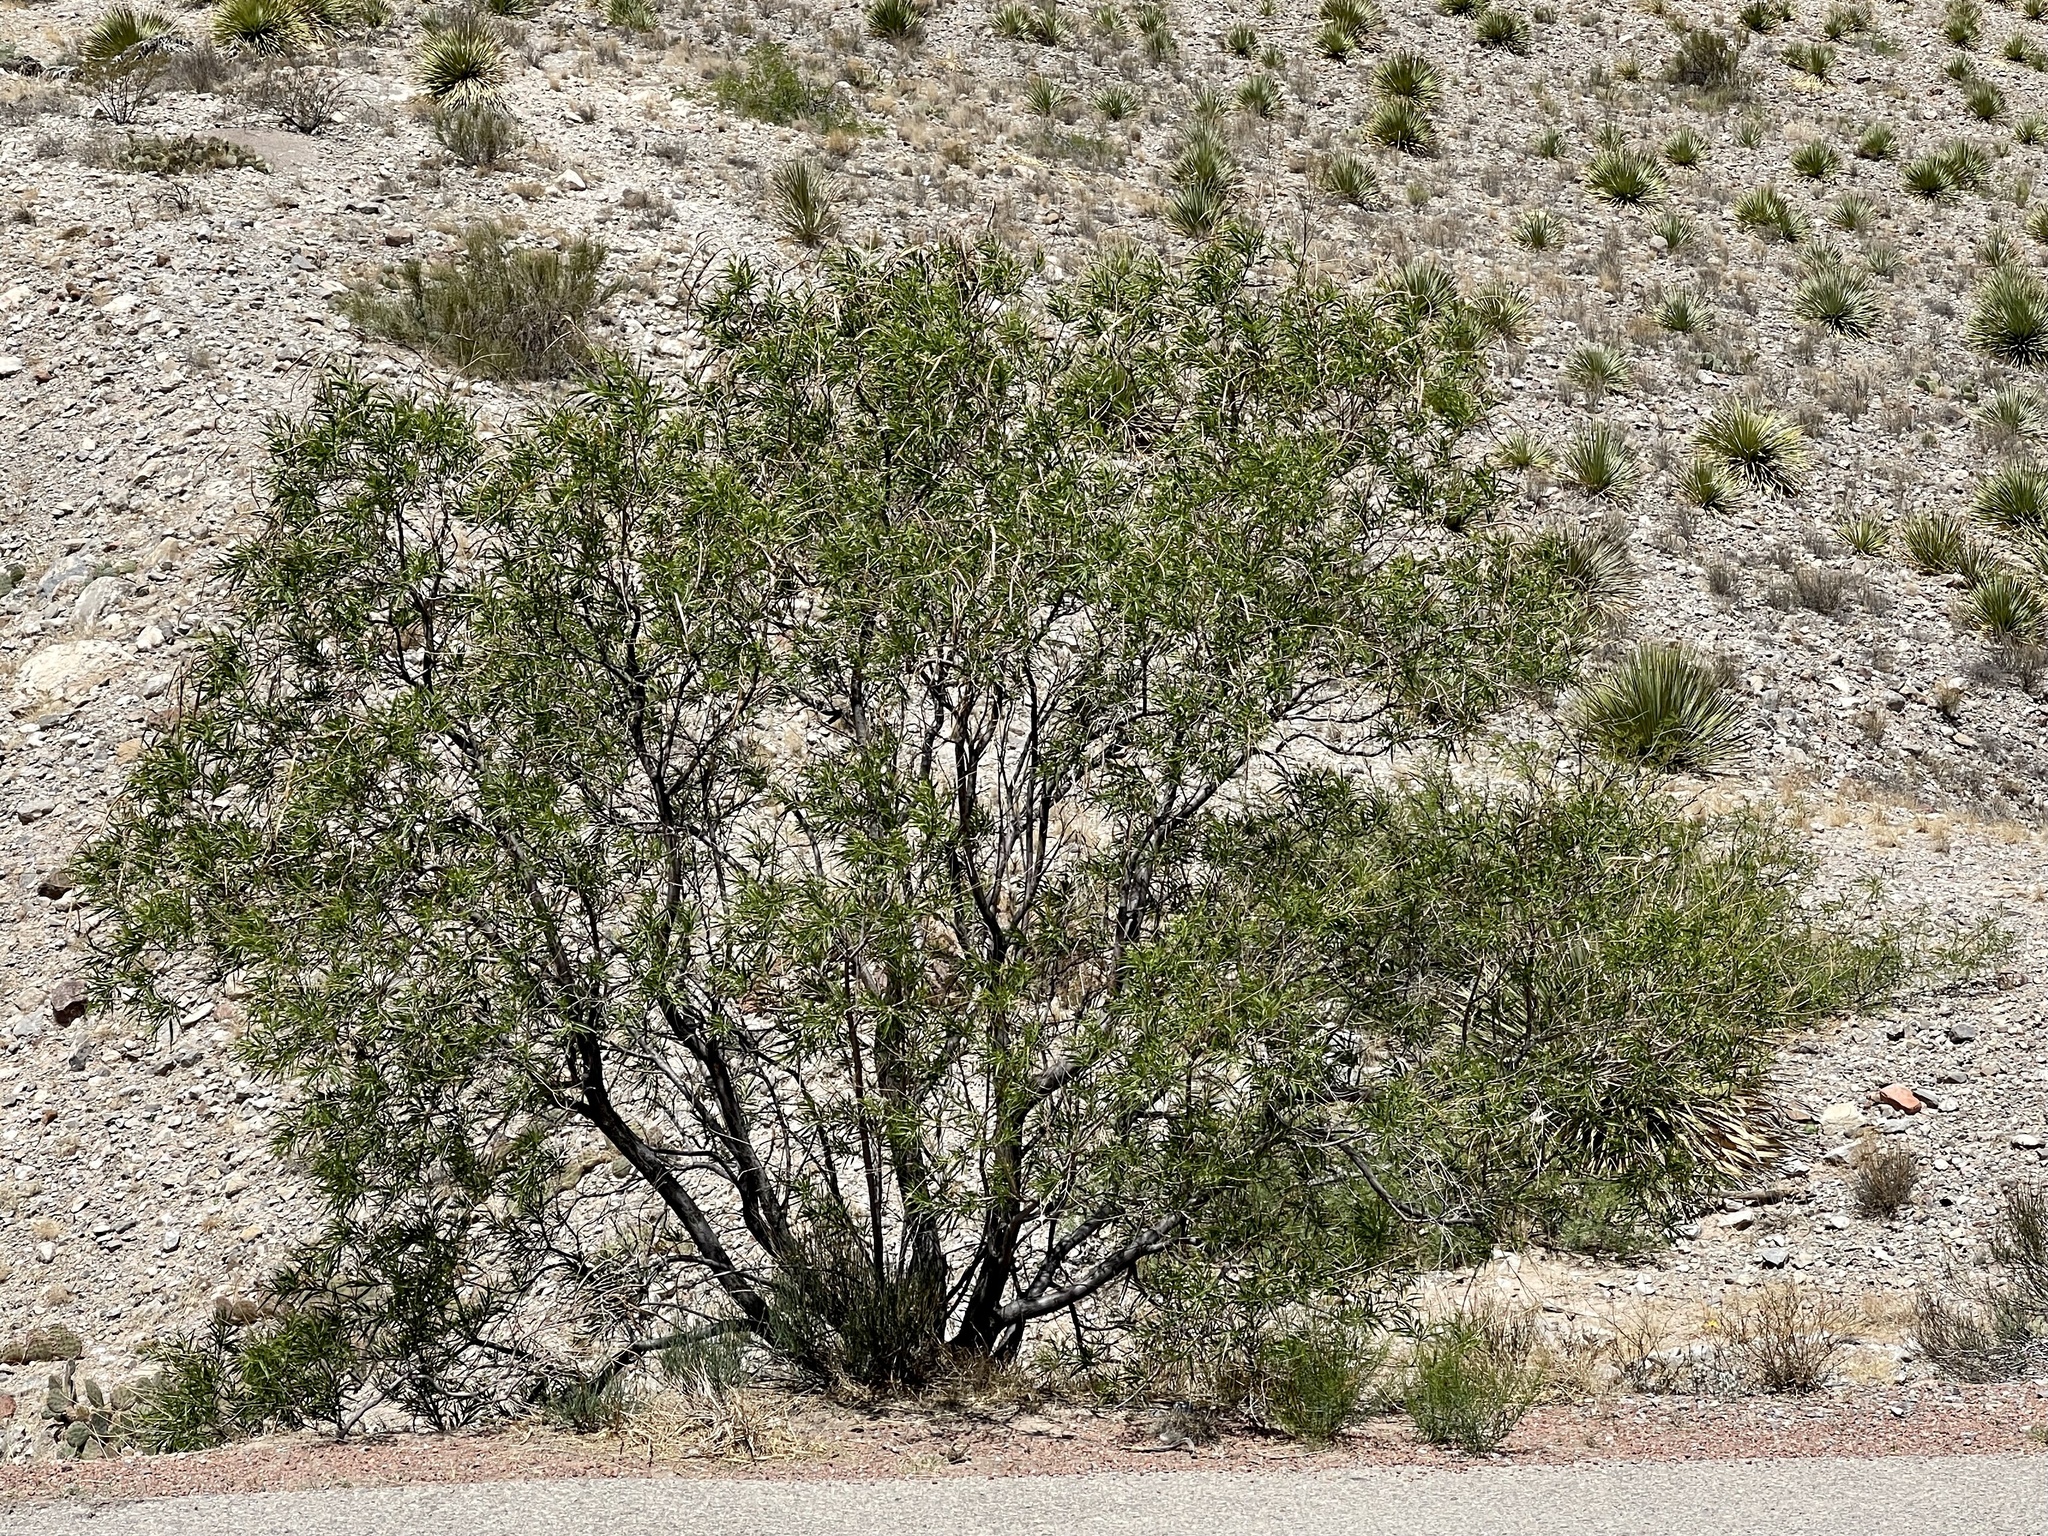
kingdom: Plantae
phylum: Tracheophyta
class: Magnoliopsida
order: Zygophyllales
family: Zygophyllaceae
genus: Larrea
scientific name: Larrea tridentata
